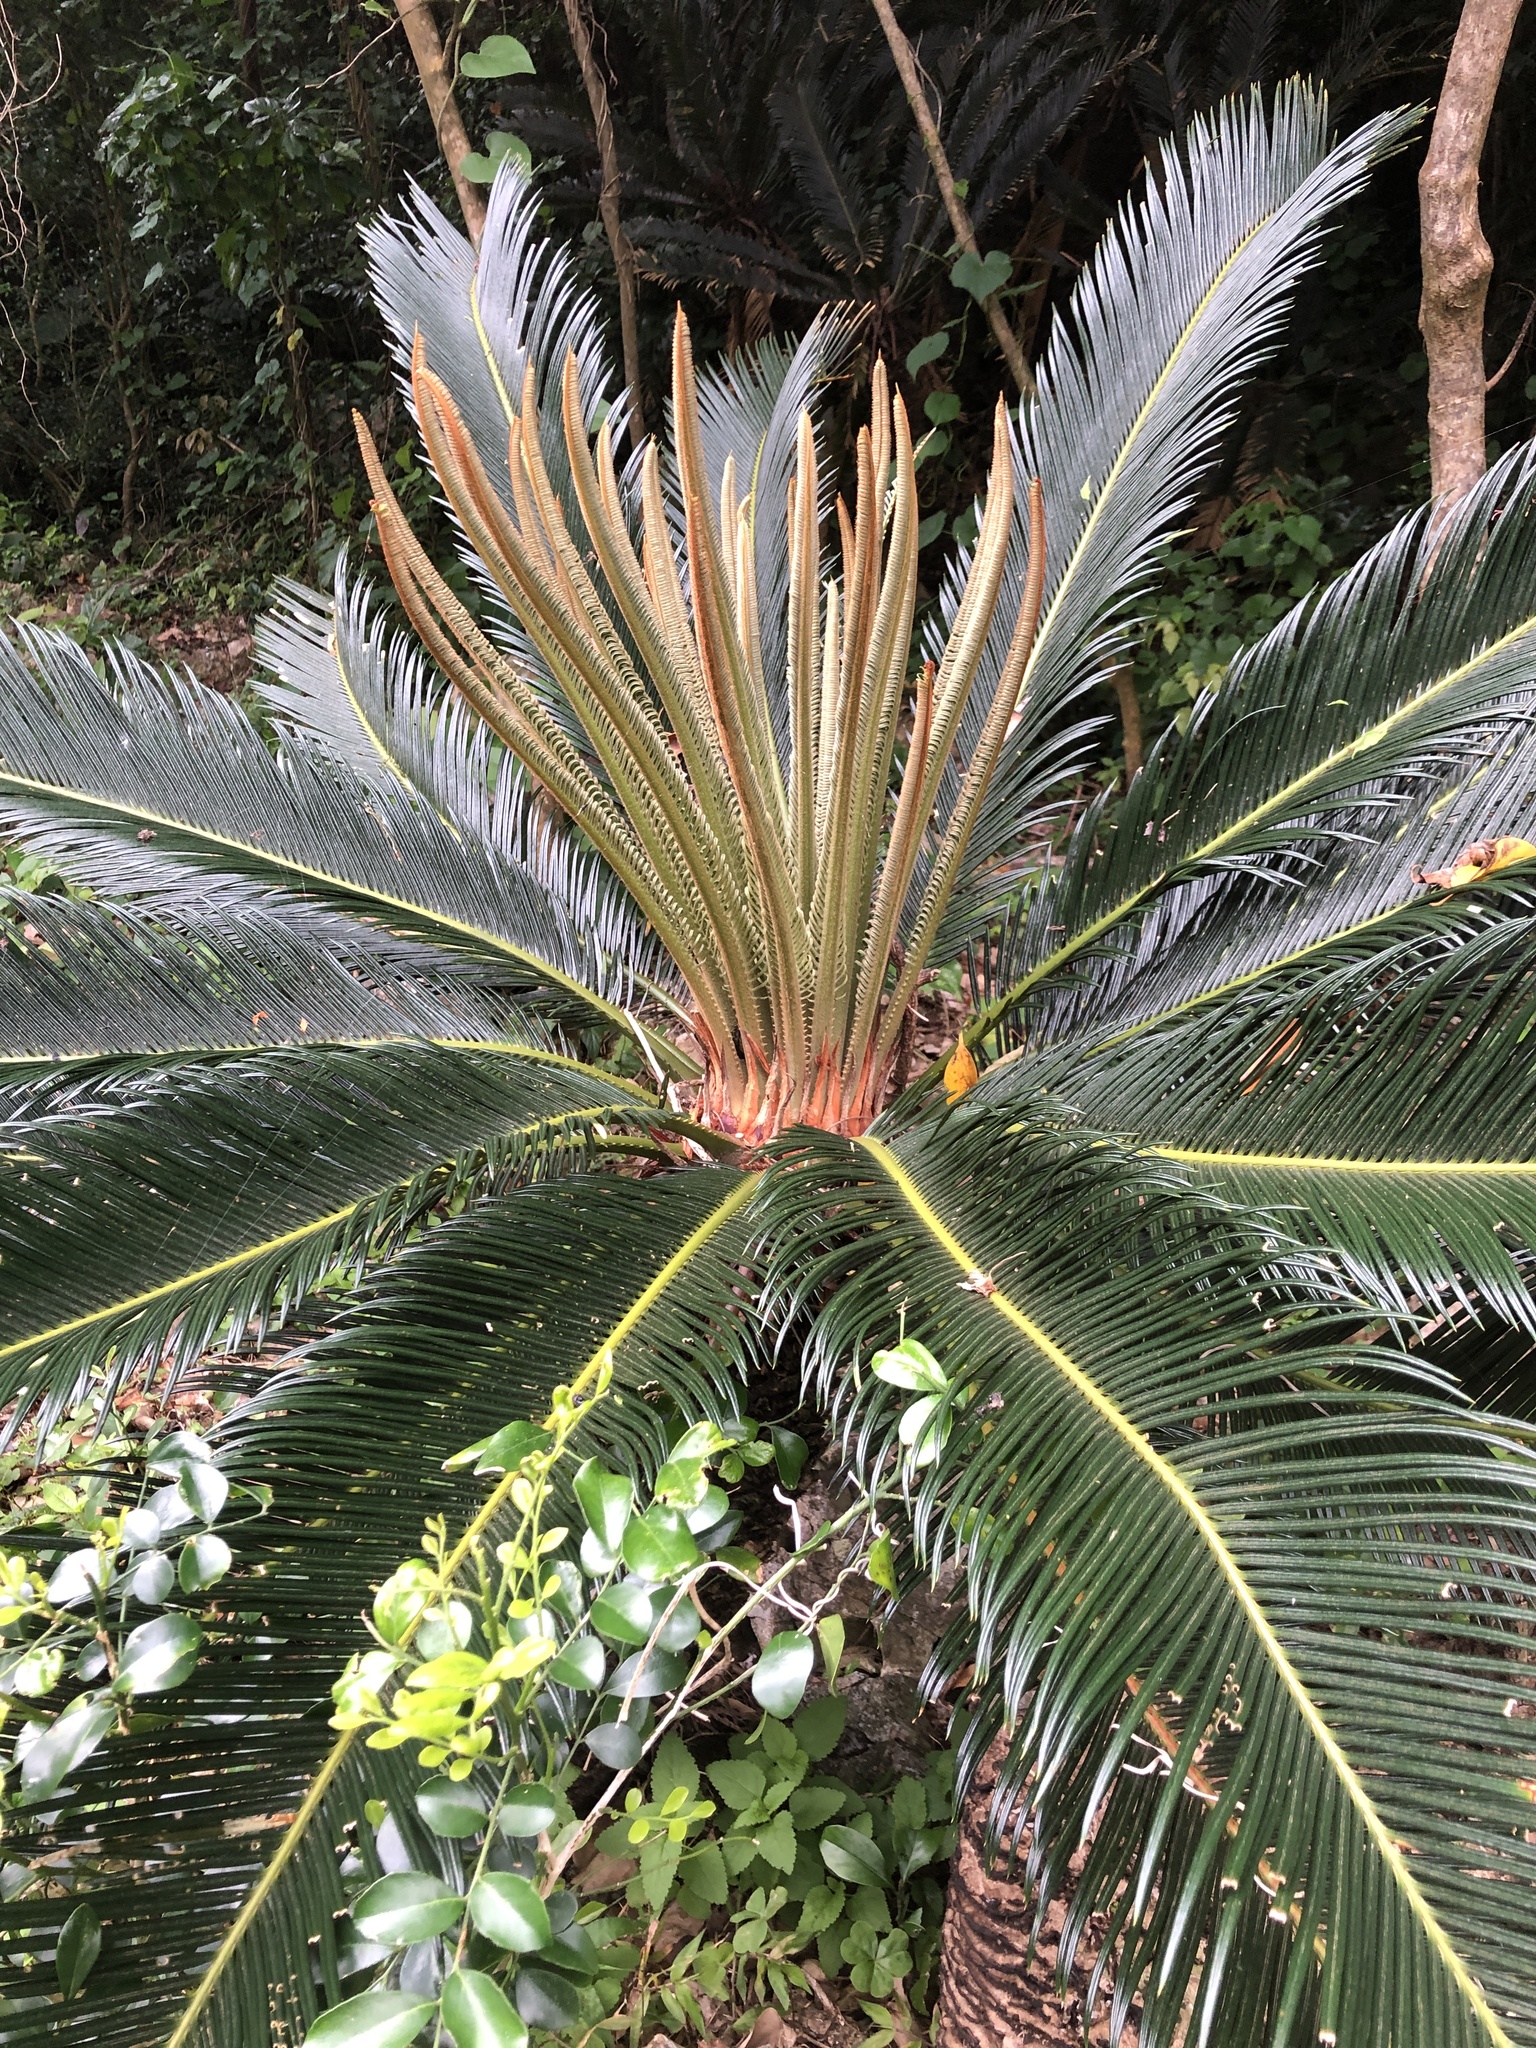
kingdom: Plantae
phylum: Tracheophyta
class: Cycadopsida
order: Cycadales
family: Cycadaceae
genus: Cycas
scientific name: Cycas revoluta
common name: Sago palm
